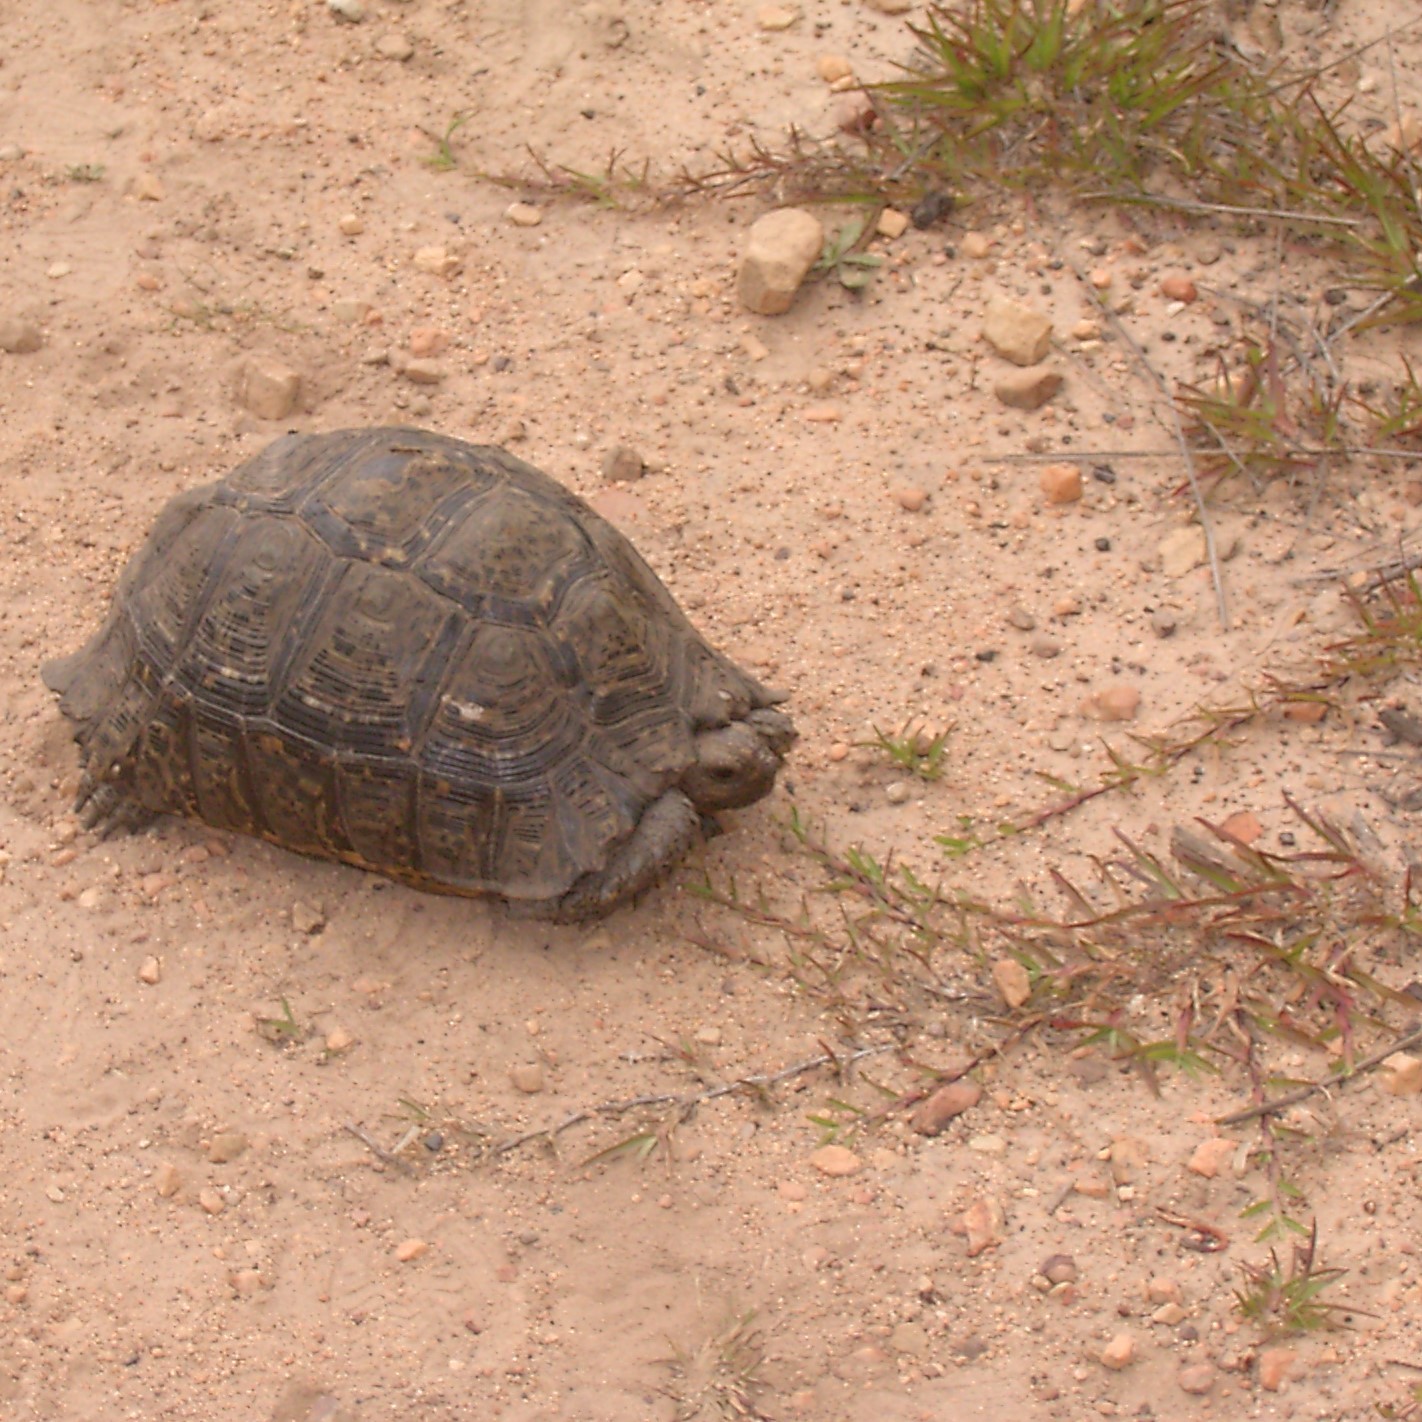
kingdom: Animalia
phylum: Chordata
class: Testudines
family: Testudinidae
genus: Stigmochelys
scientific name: Stigmochelys pardalis
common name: Leopard tortoise
